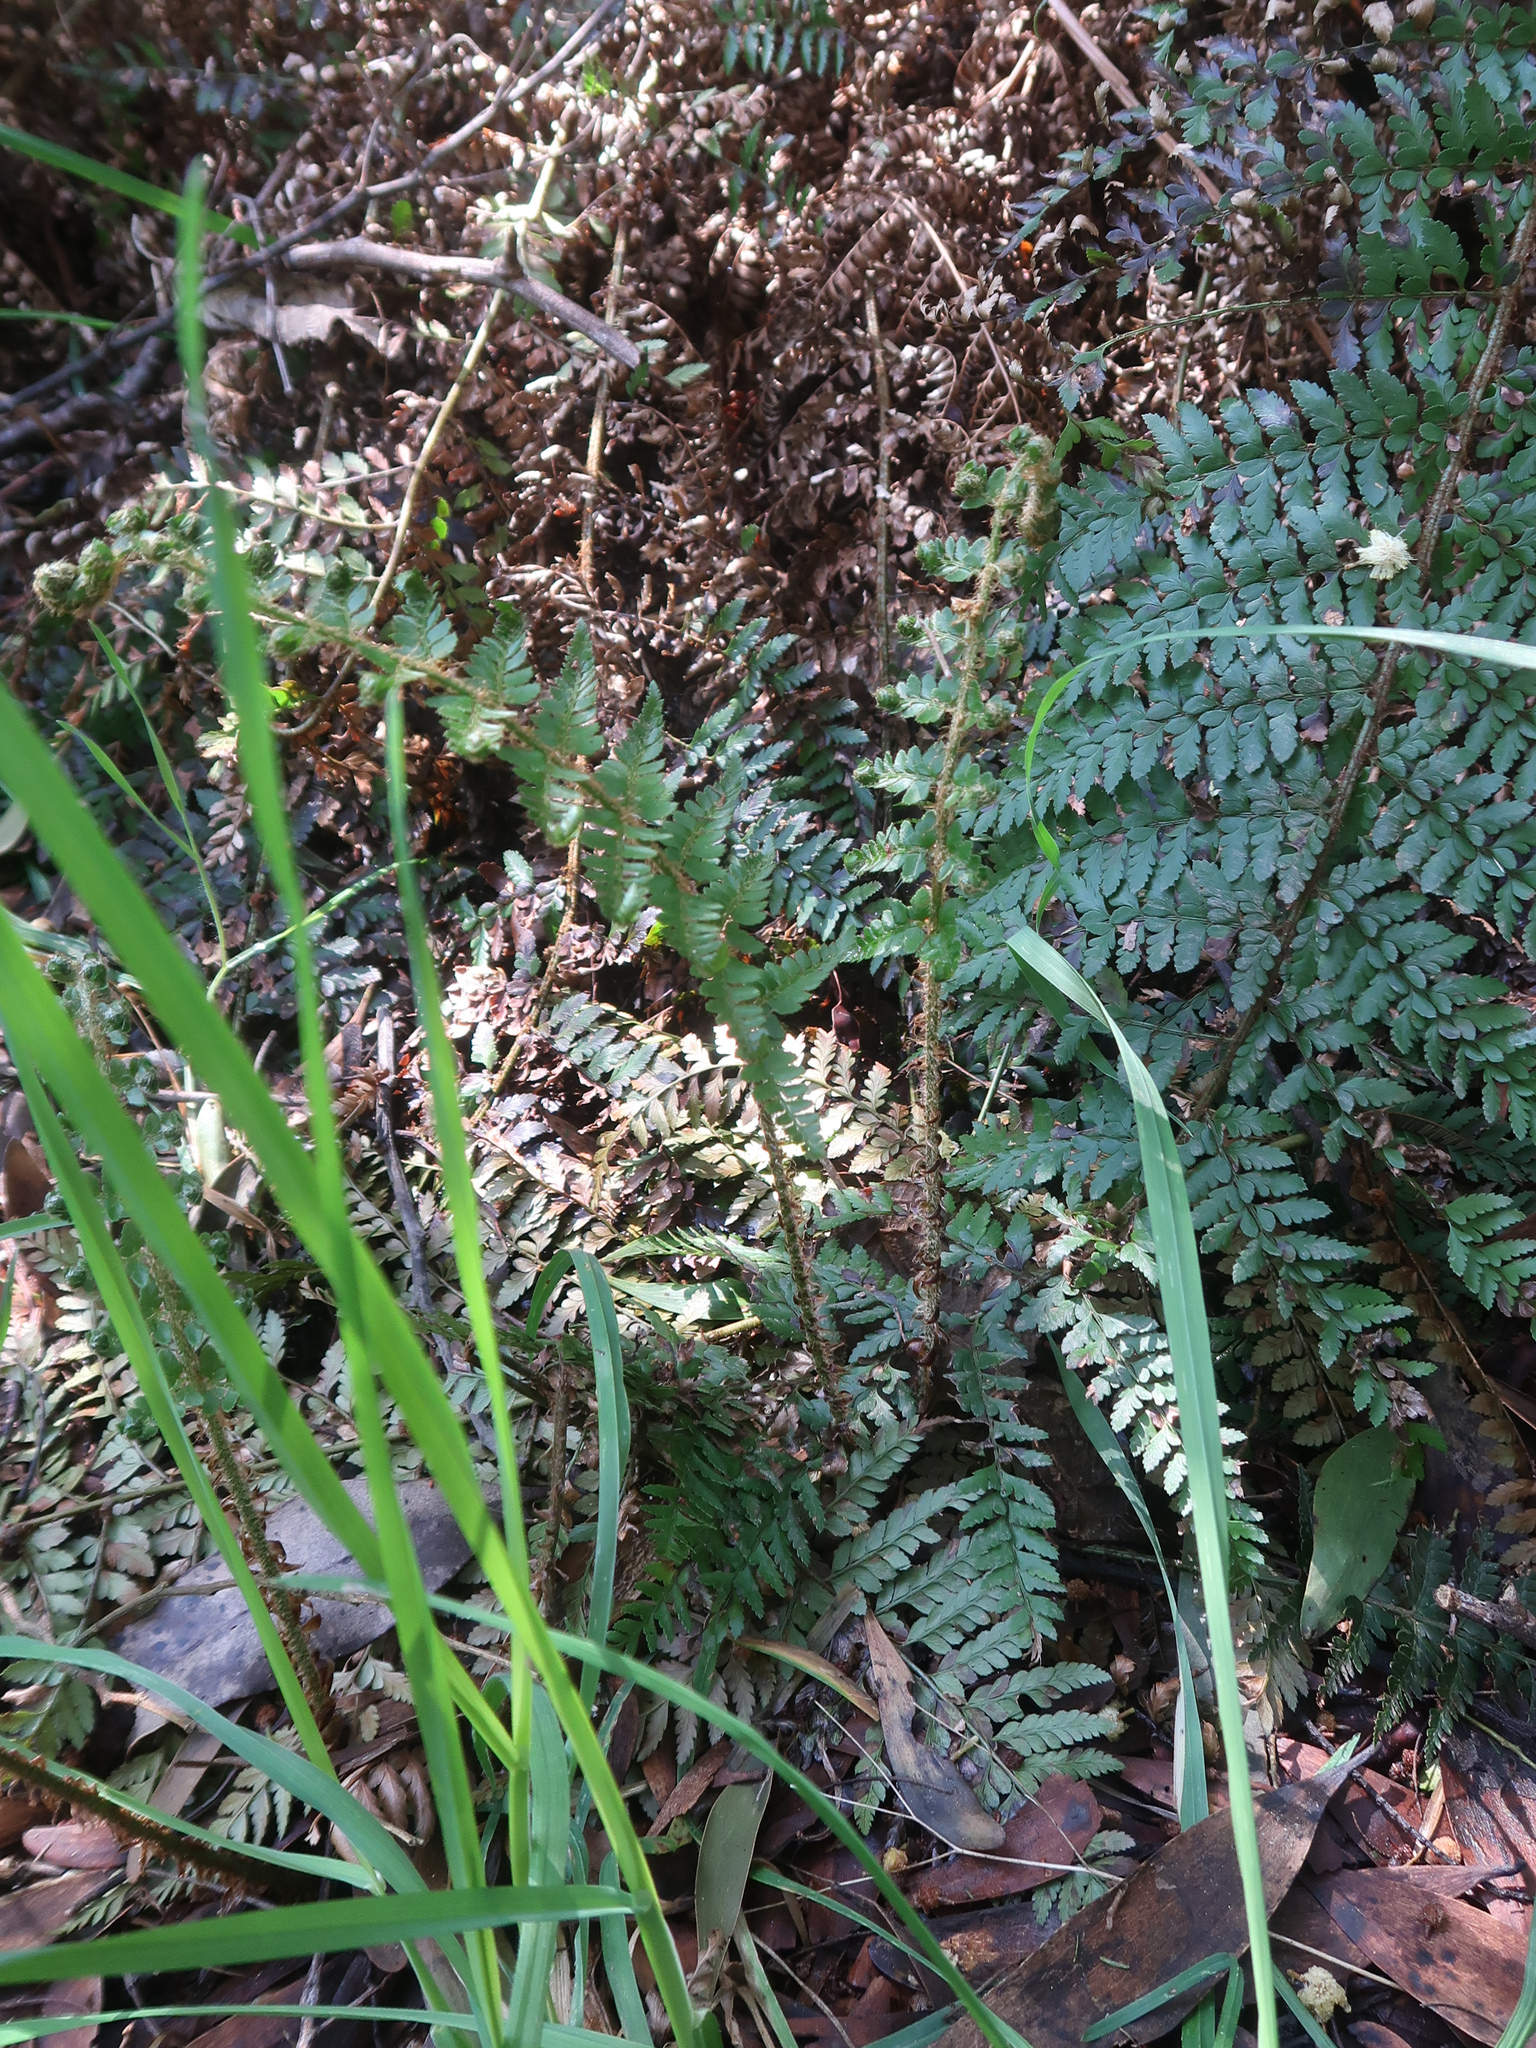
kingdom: Plantae
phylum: Tracheophyta
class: Polypodiopsida
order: Polypodiales
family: Dryopteridaceae
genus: Polystichum
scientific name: Polystichum proliferum
